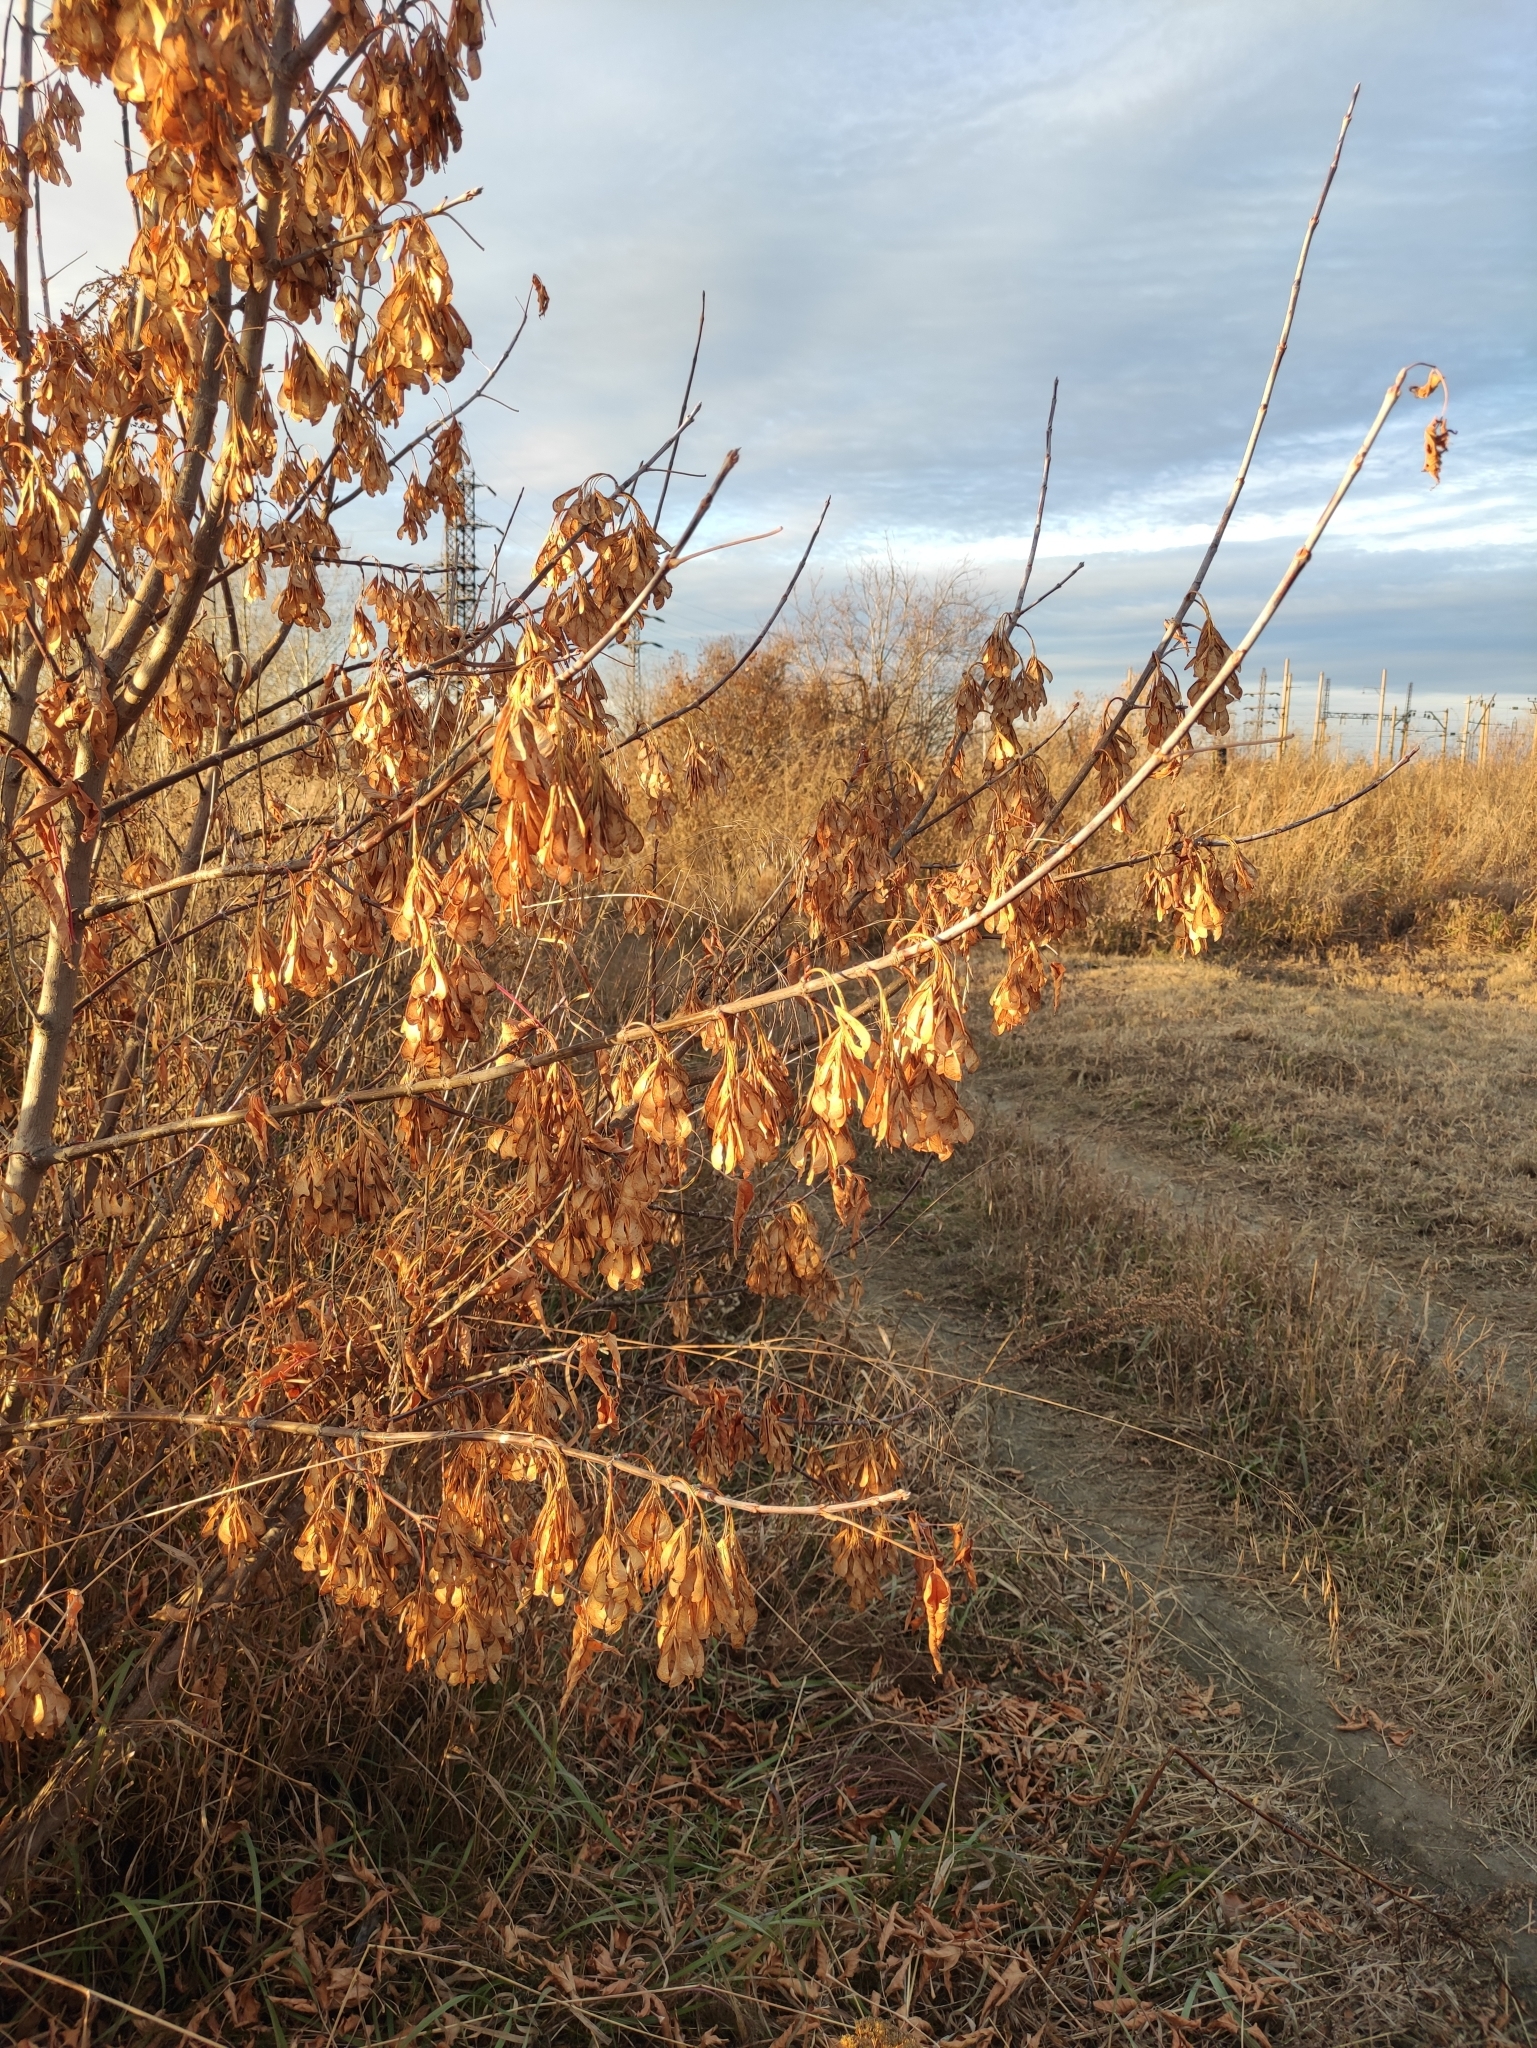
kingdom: Plantae
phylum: Tracheophyta
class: Magnoliopsida
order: Sapindales
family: Sapindaceae
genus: Acer
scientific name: Acer negundo
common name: Ashleaf maple
